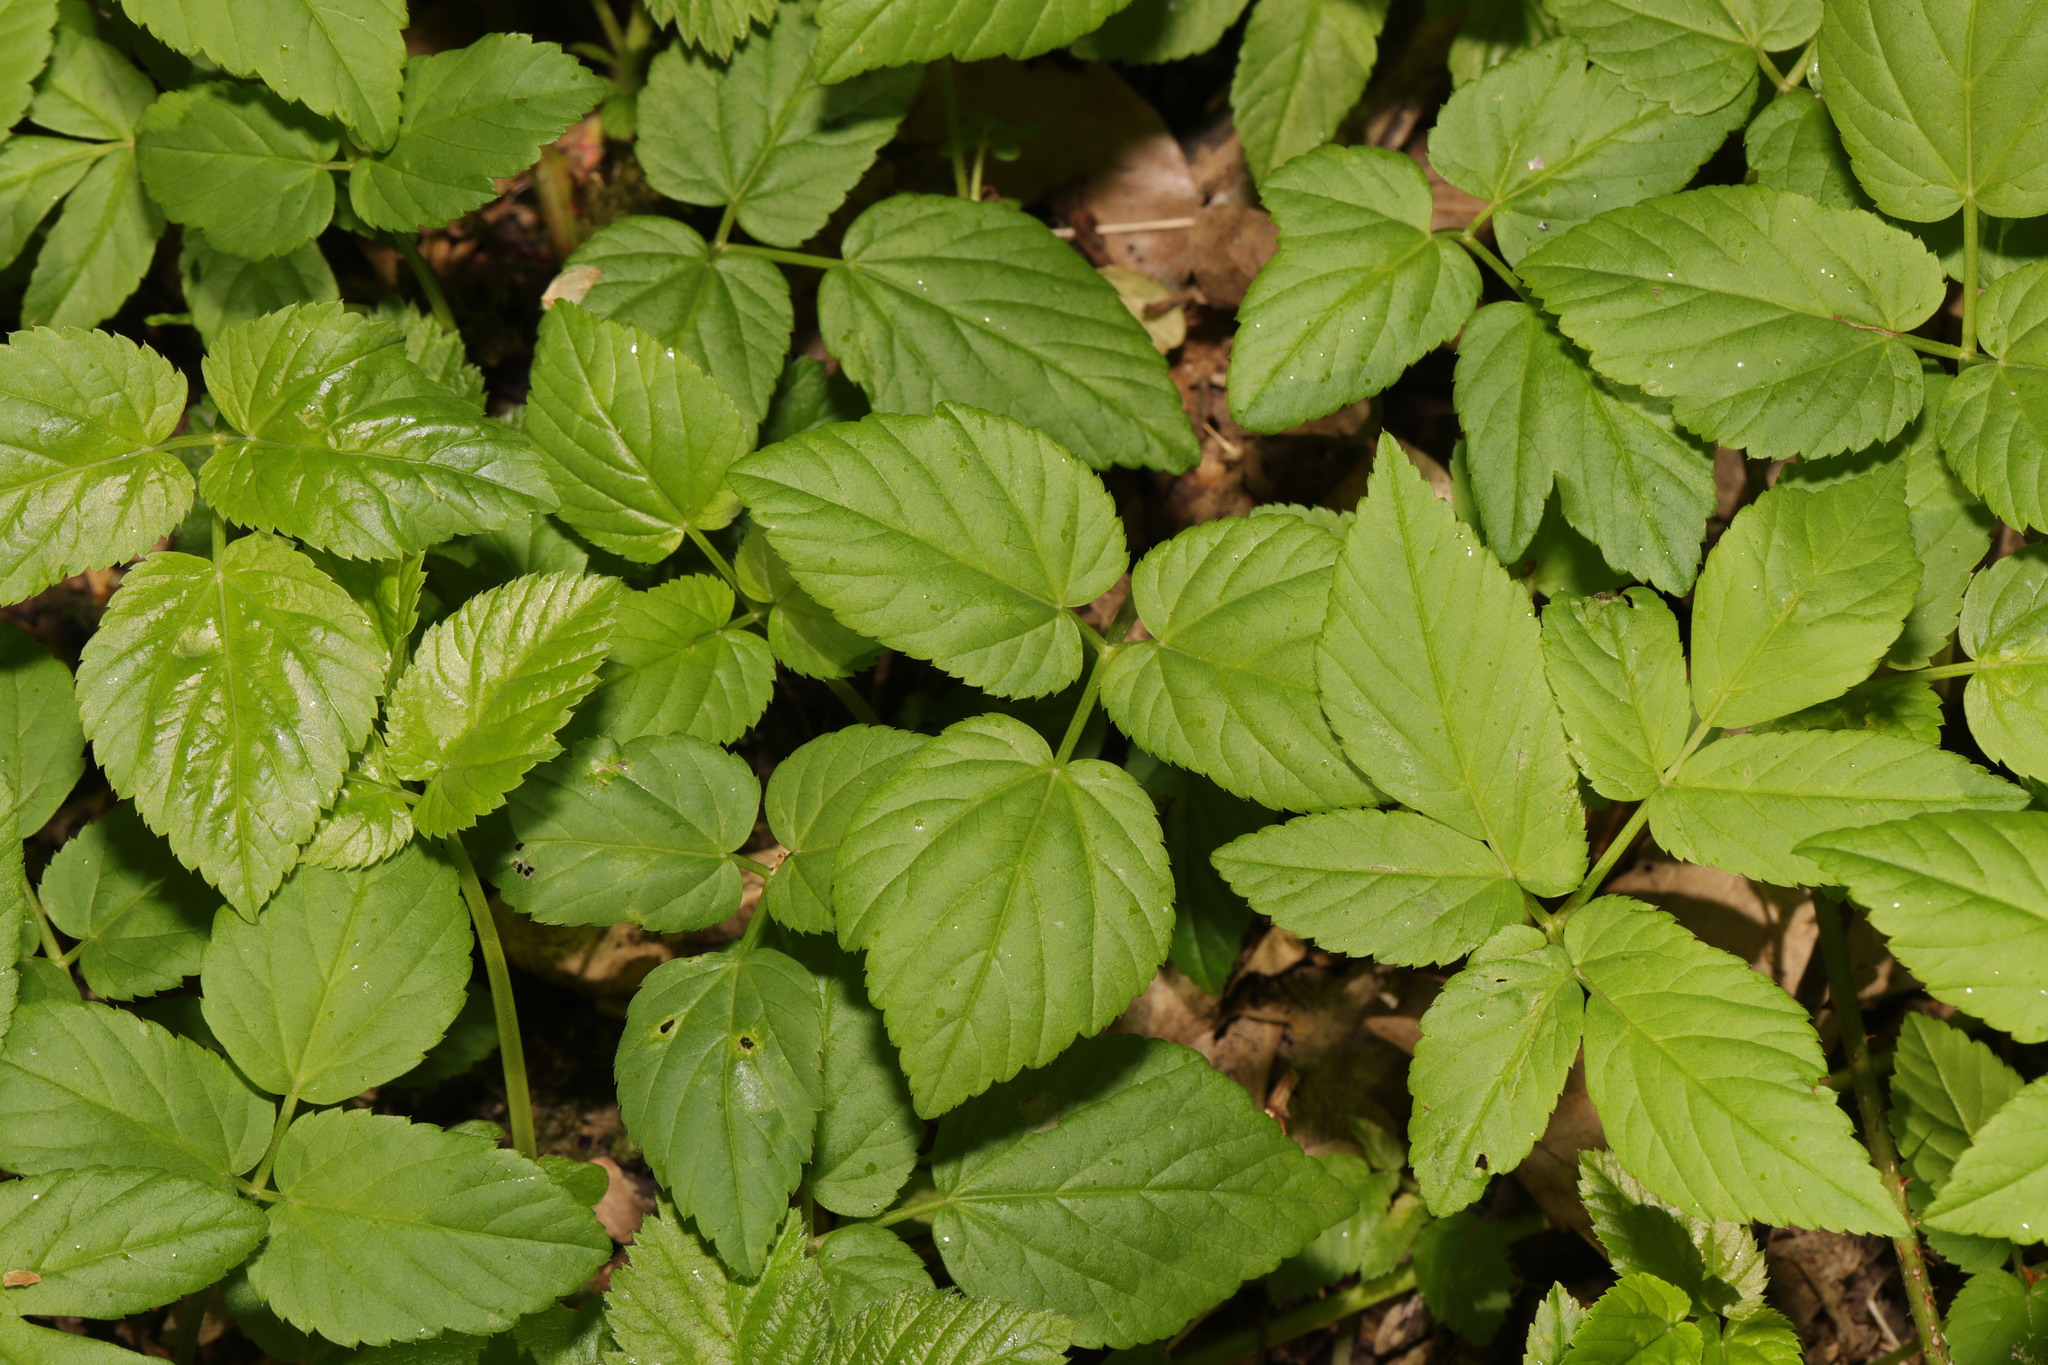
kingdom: Plantae
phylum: Tracheophyta
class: Magnoliopsida
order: Apiales
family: Apiaceae
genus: Aegopodium
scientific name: Aegopodium podagraria
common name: Ground-elder
